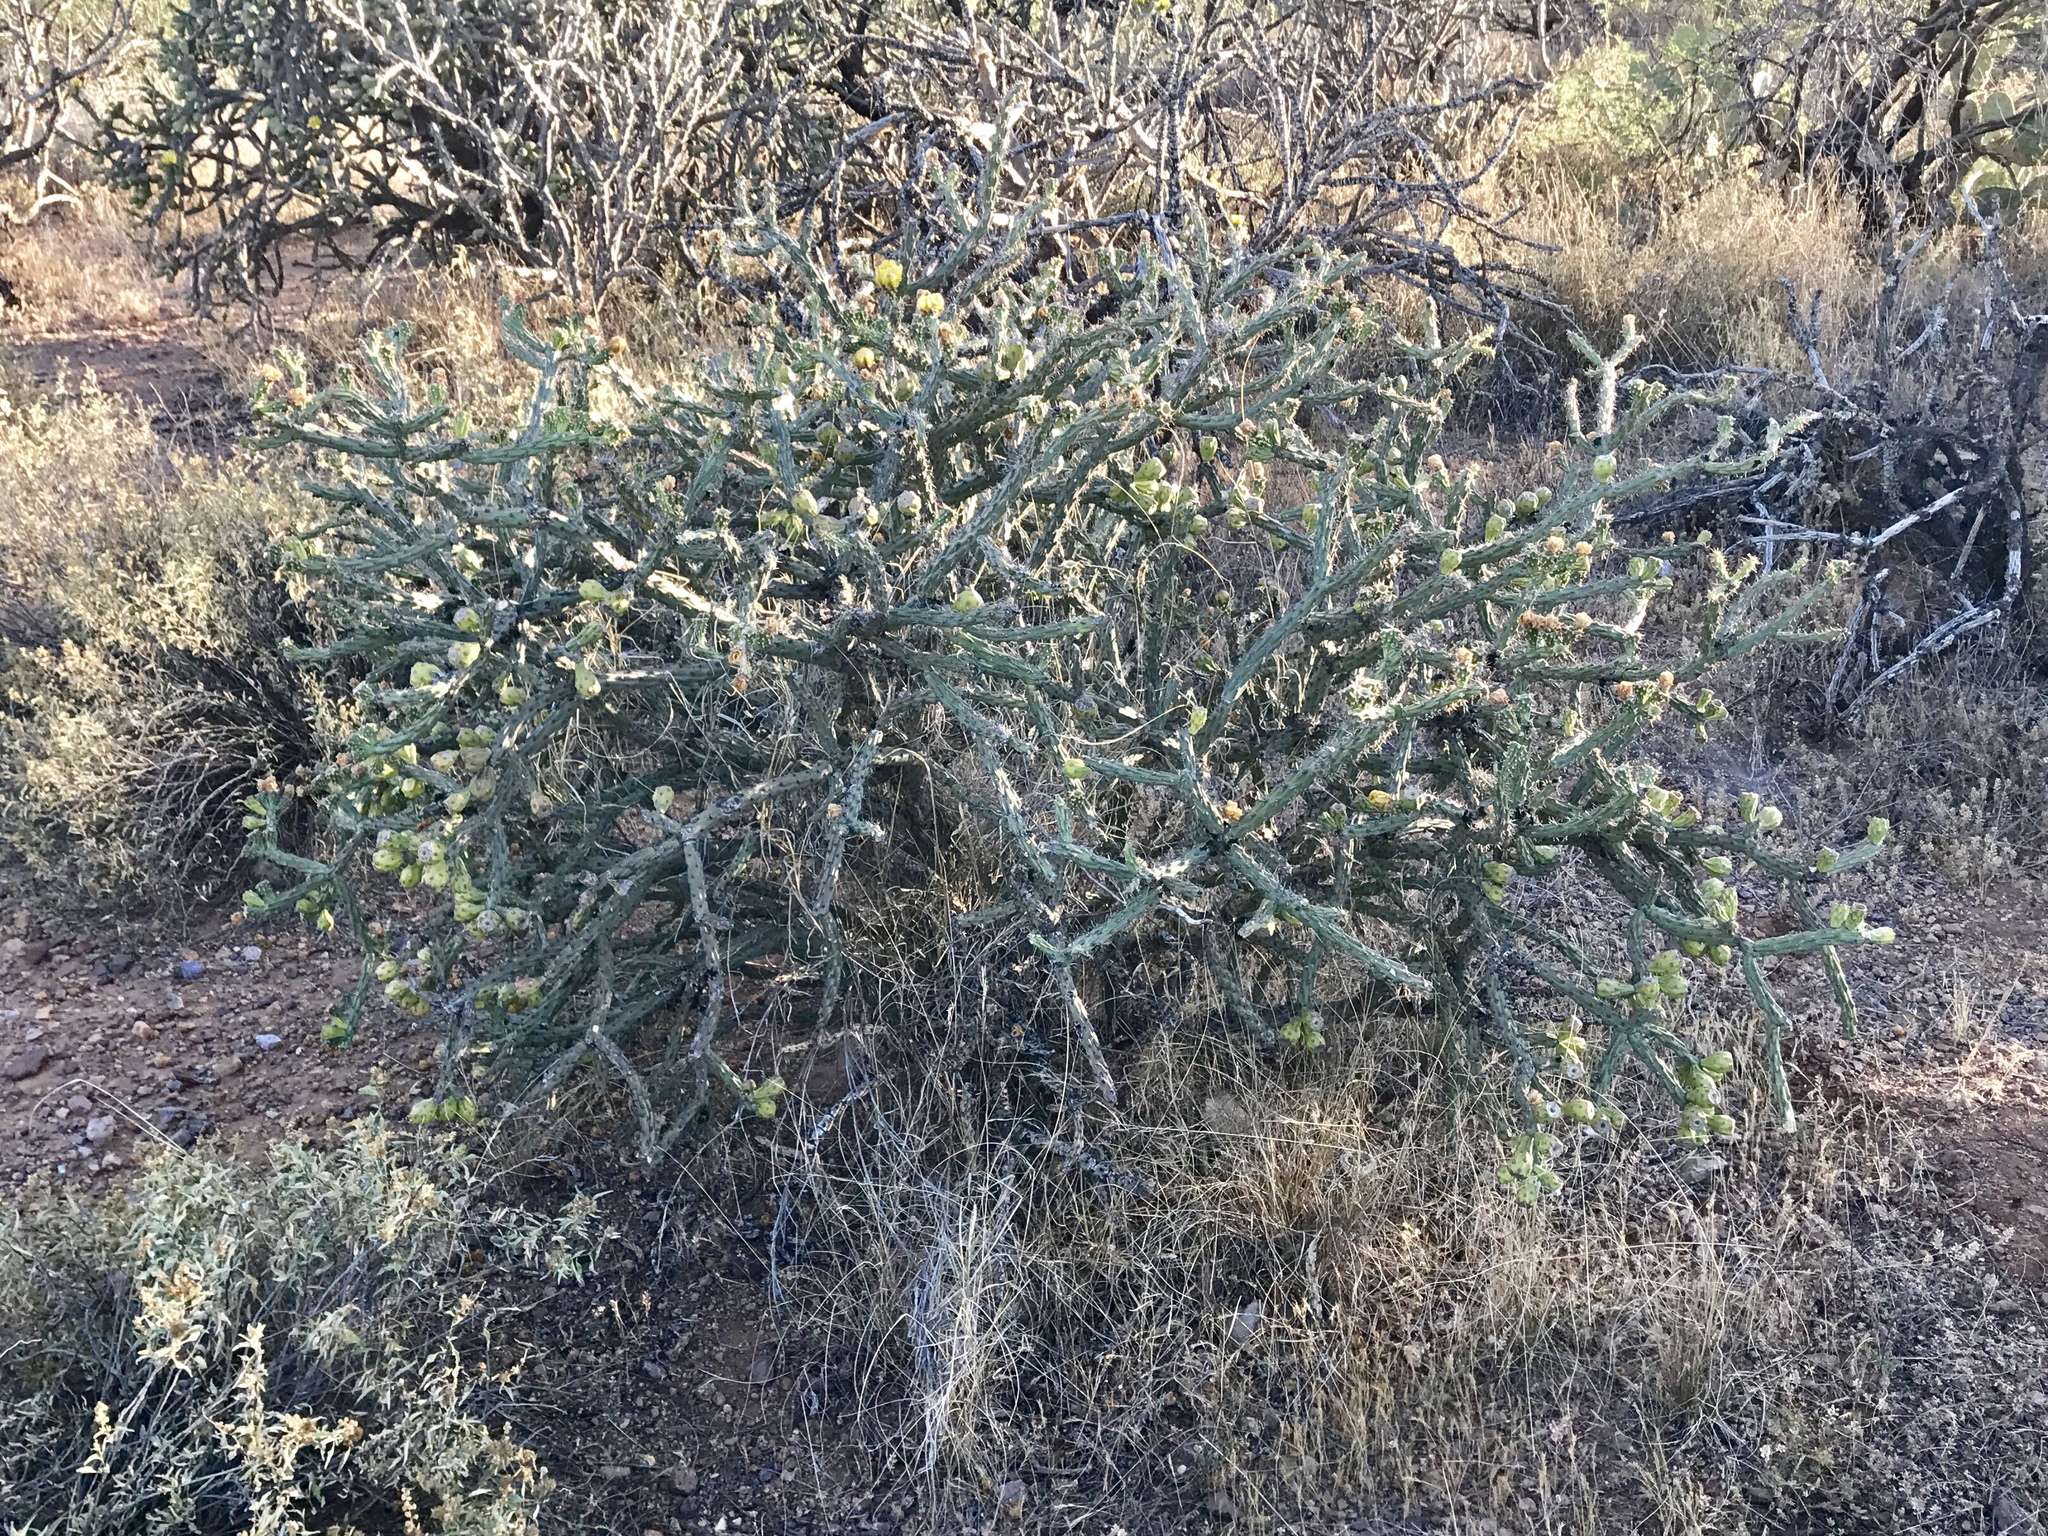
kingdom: Plantae
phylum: Tracheophyta
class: Magnoliopsida
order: Caryophyllales
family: Cactaceae
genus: Cylindropuntia
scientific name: Cylindropuntia thurberi
